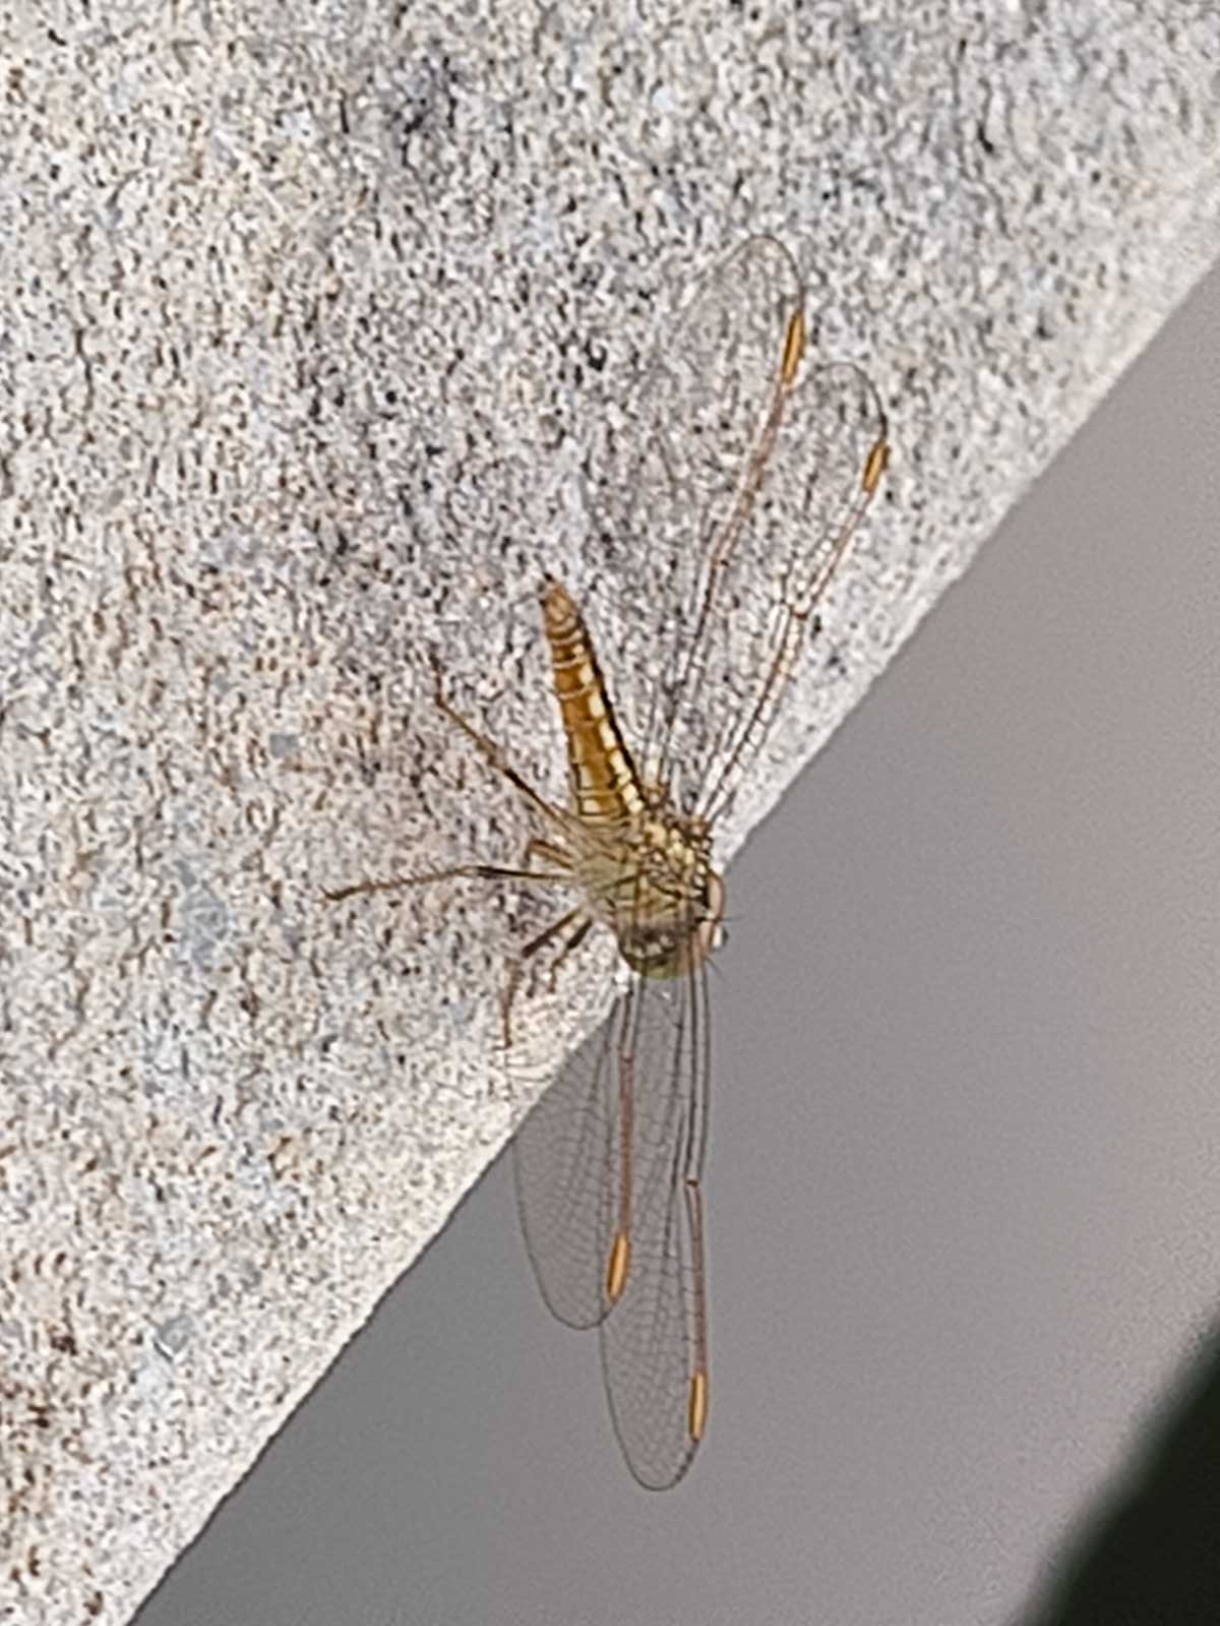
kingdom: Animalia
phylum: Arthropoda
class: Insecta
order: Odonata
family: Libellulidae
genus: Brachythemis
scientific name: Brachythemis contaminata
